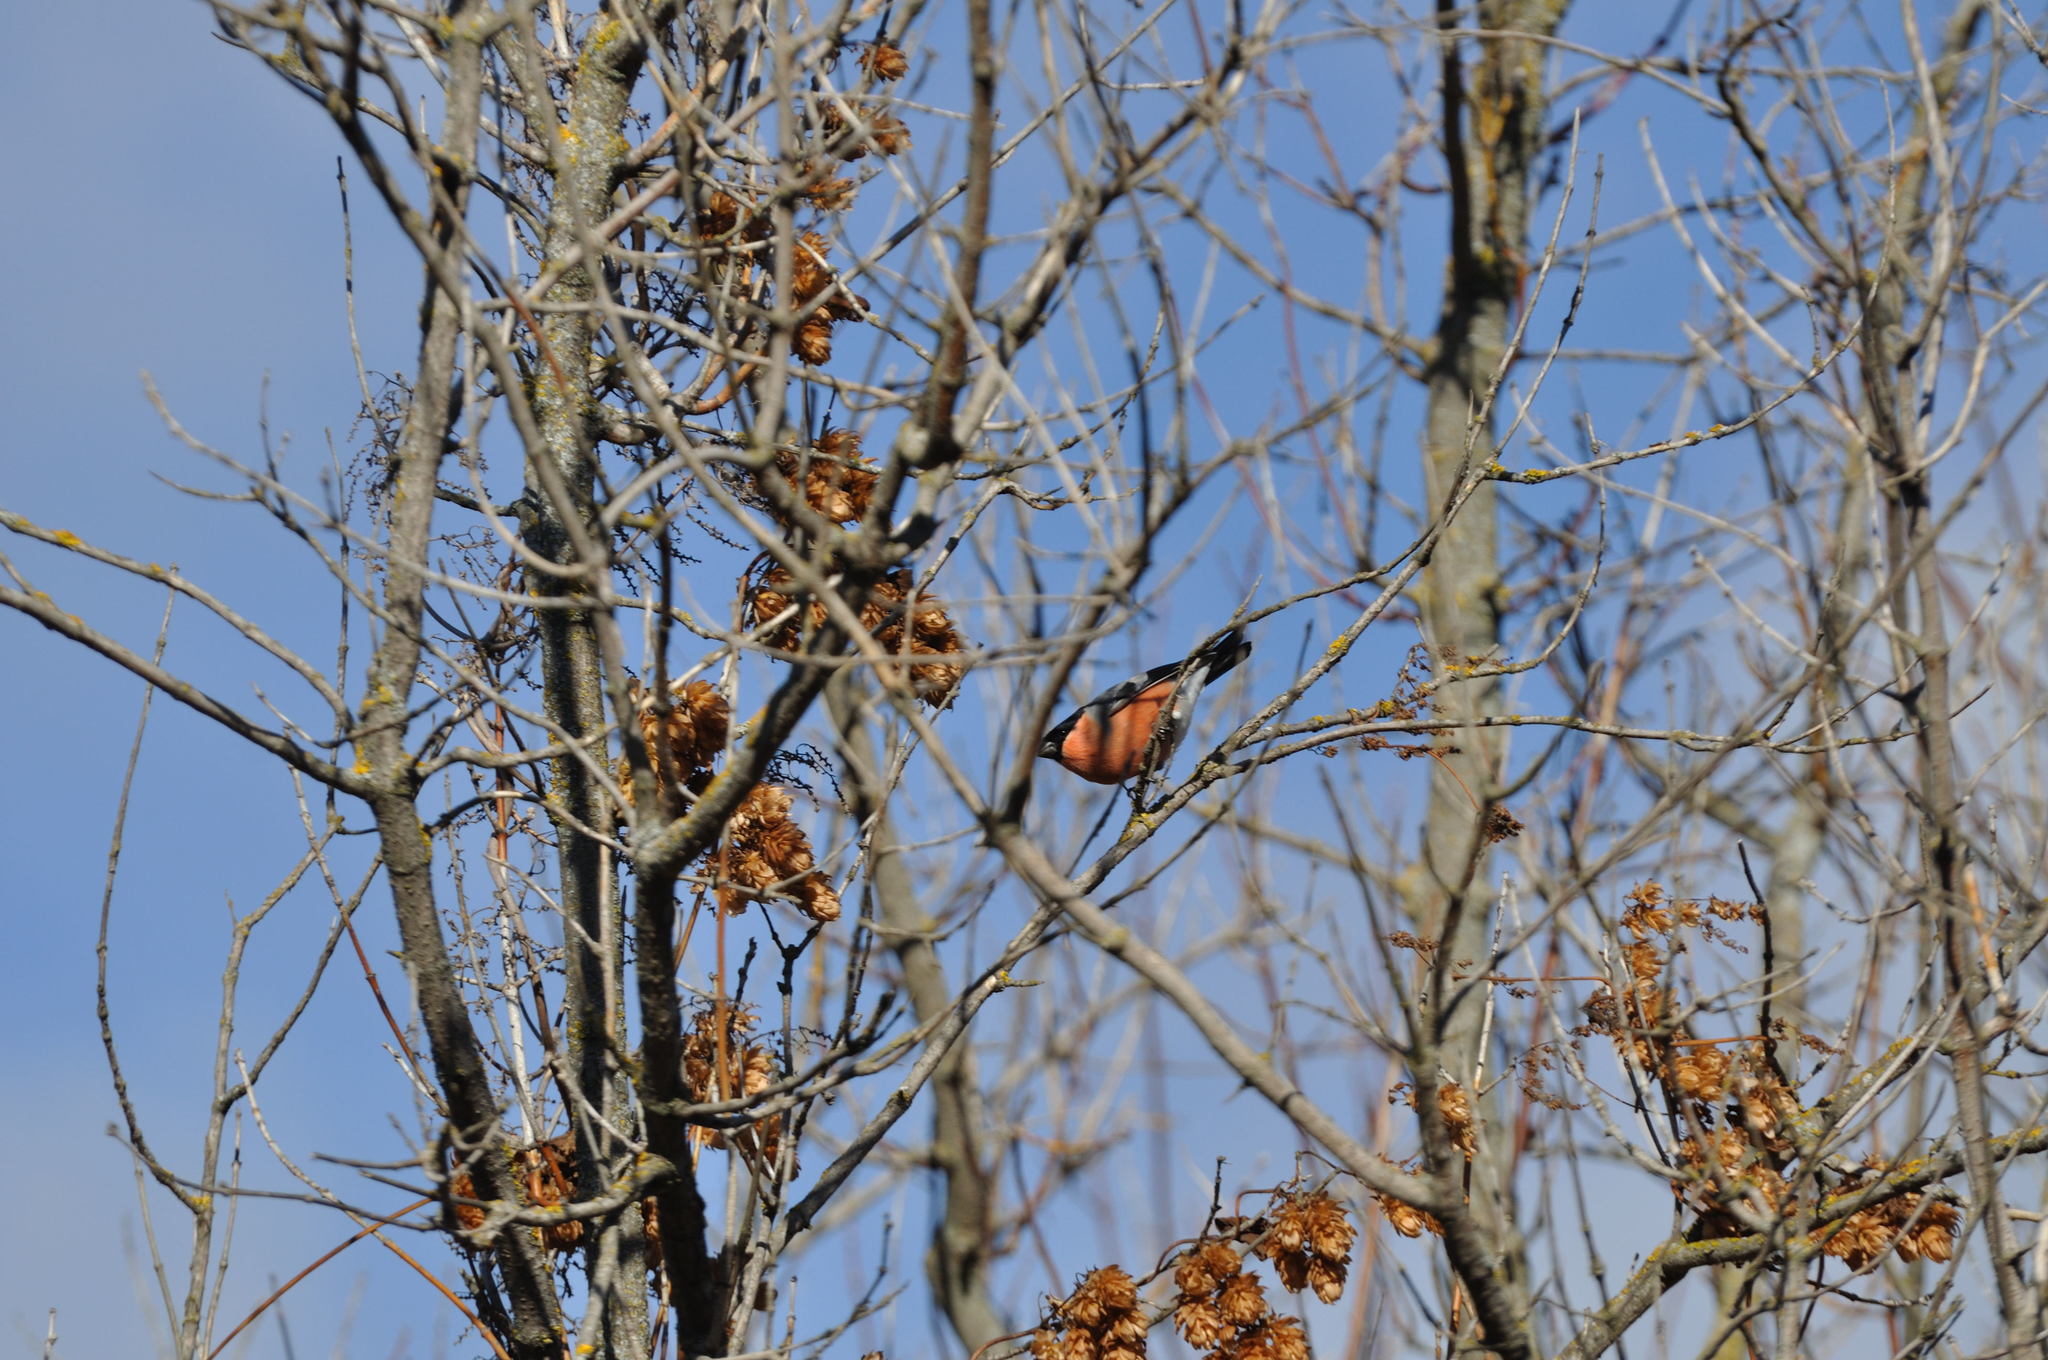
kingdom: Animalia
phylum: Chordata
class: Aves
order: Passeriformes
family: Fringillidae
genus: Pyrrhula
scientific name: Pyrrhula pyrrhula
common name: Eurasian bullfinch
